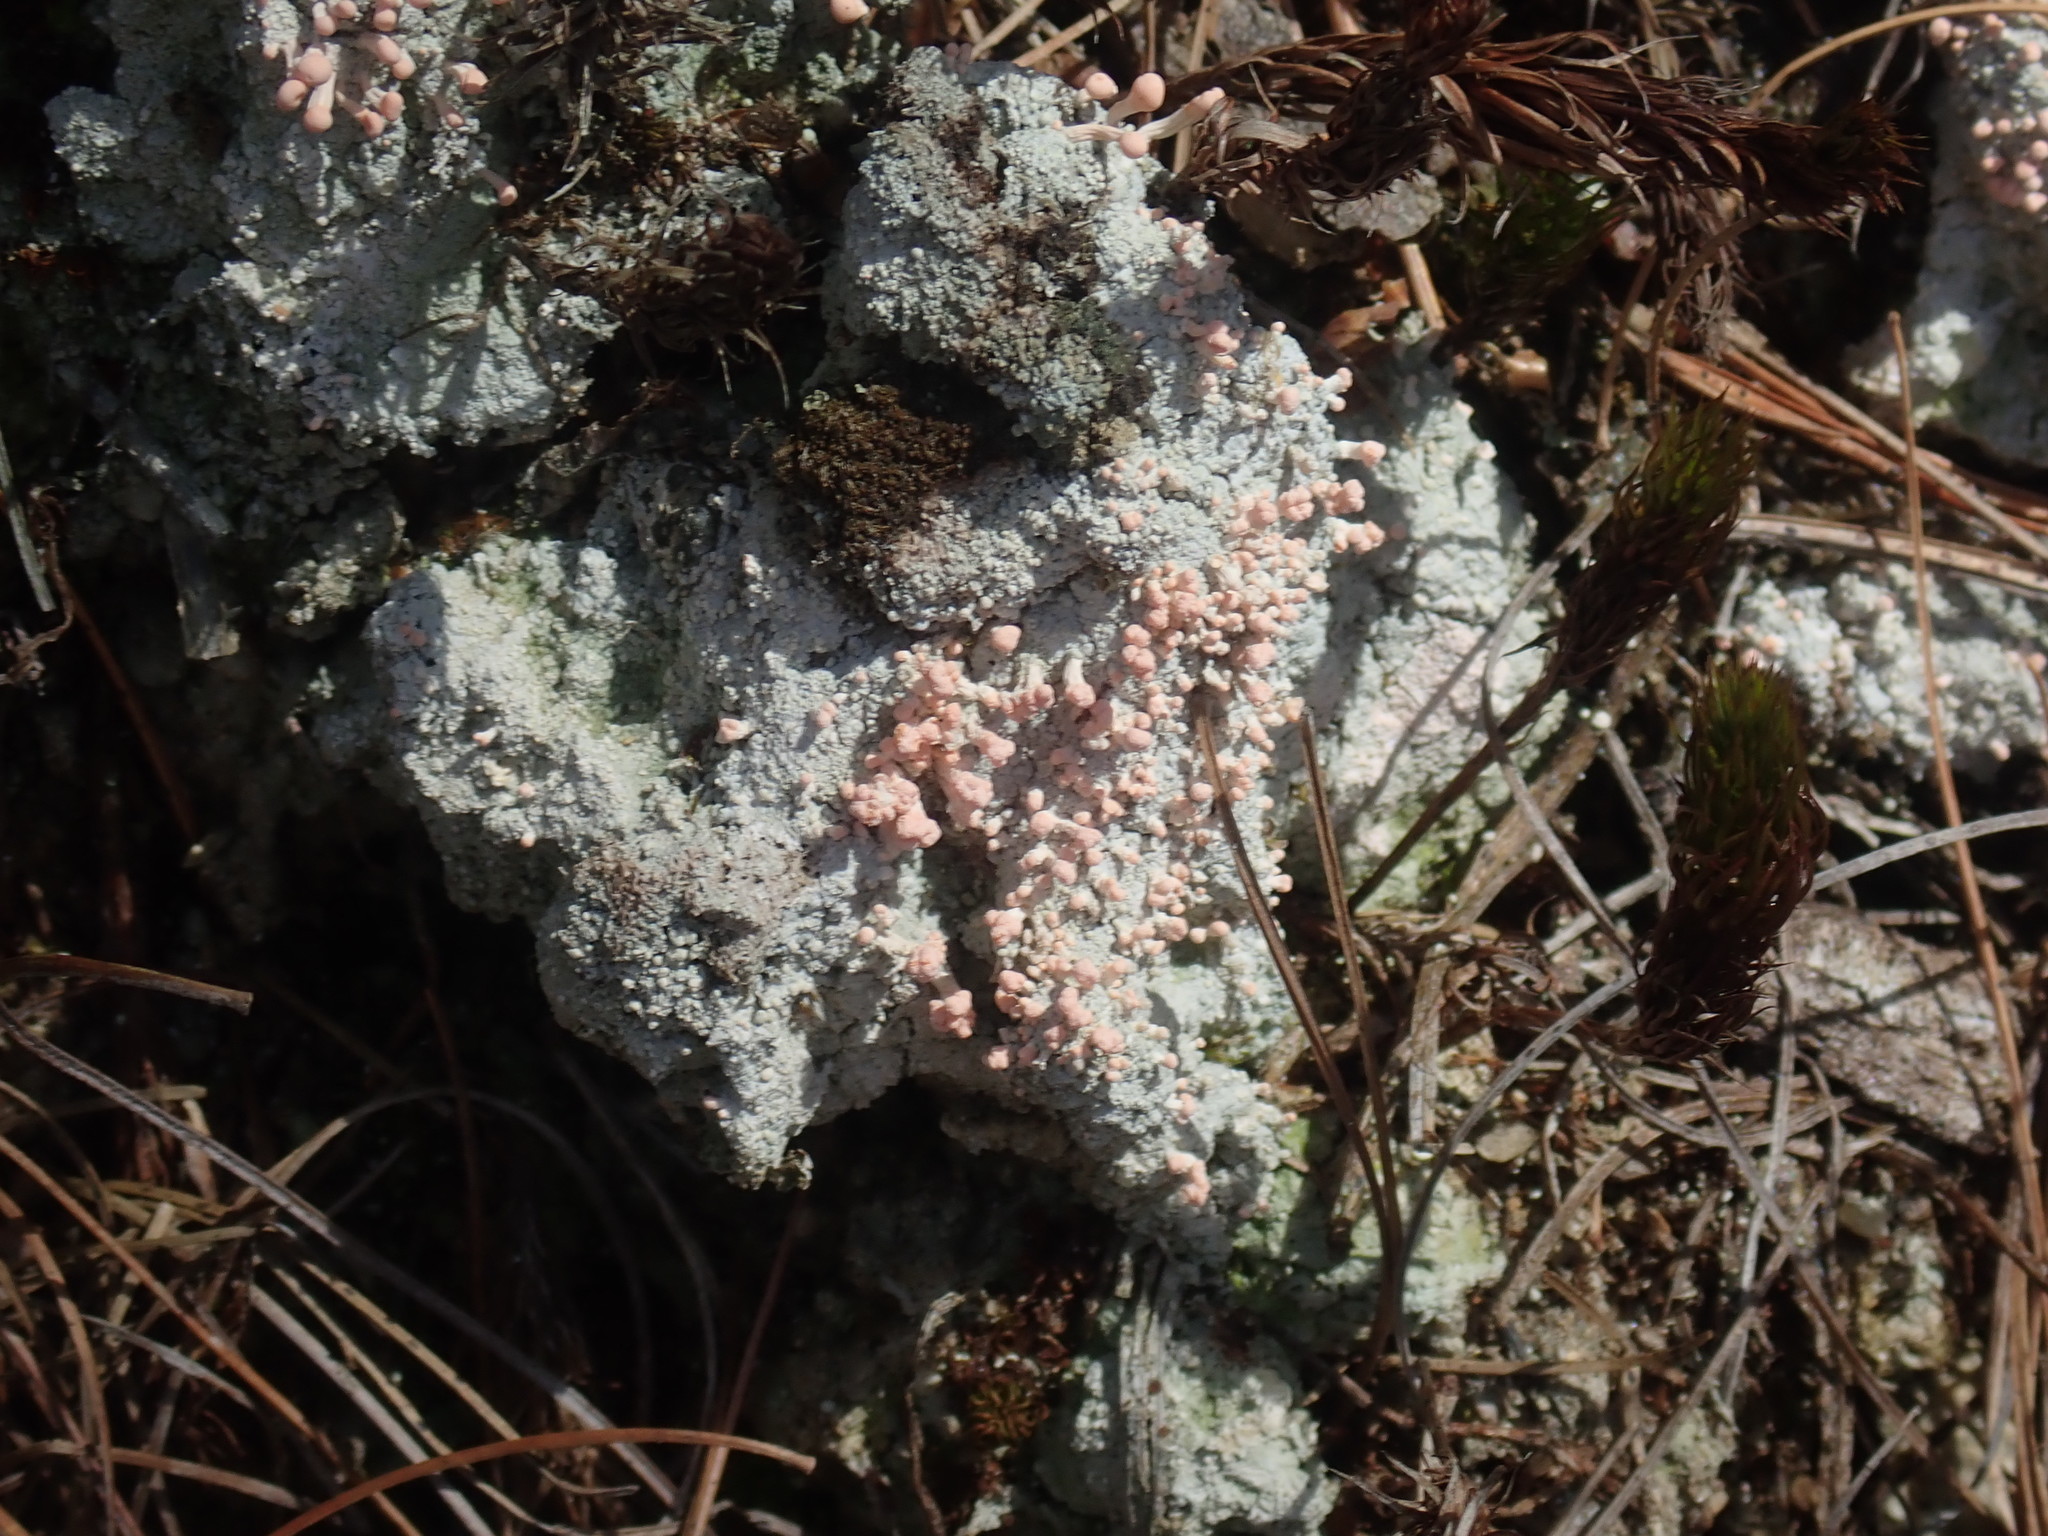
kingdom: Fungi
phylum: Ascomycota
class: Lecanoromycetes
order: Pertusariales
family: Icmadophilaceae
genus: Dibaeis
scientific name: Dibaeis baeomyces
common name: Pink earth lichen
